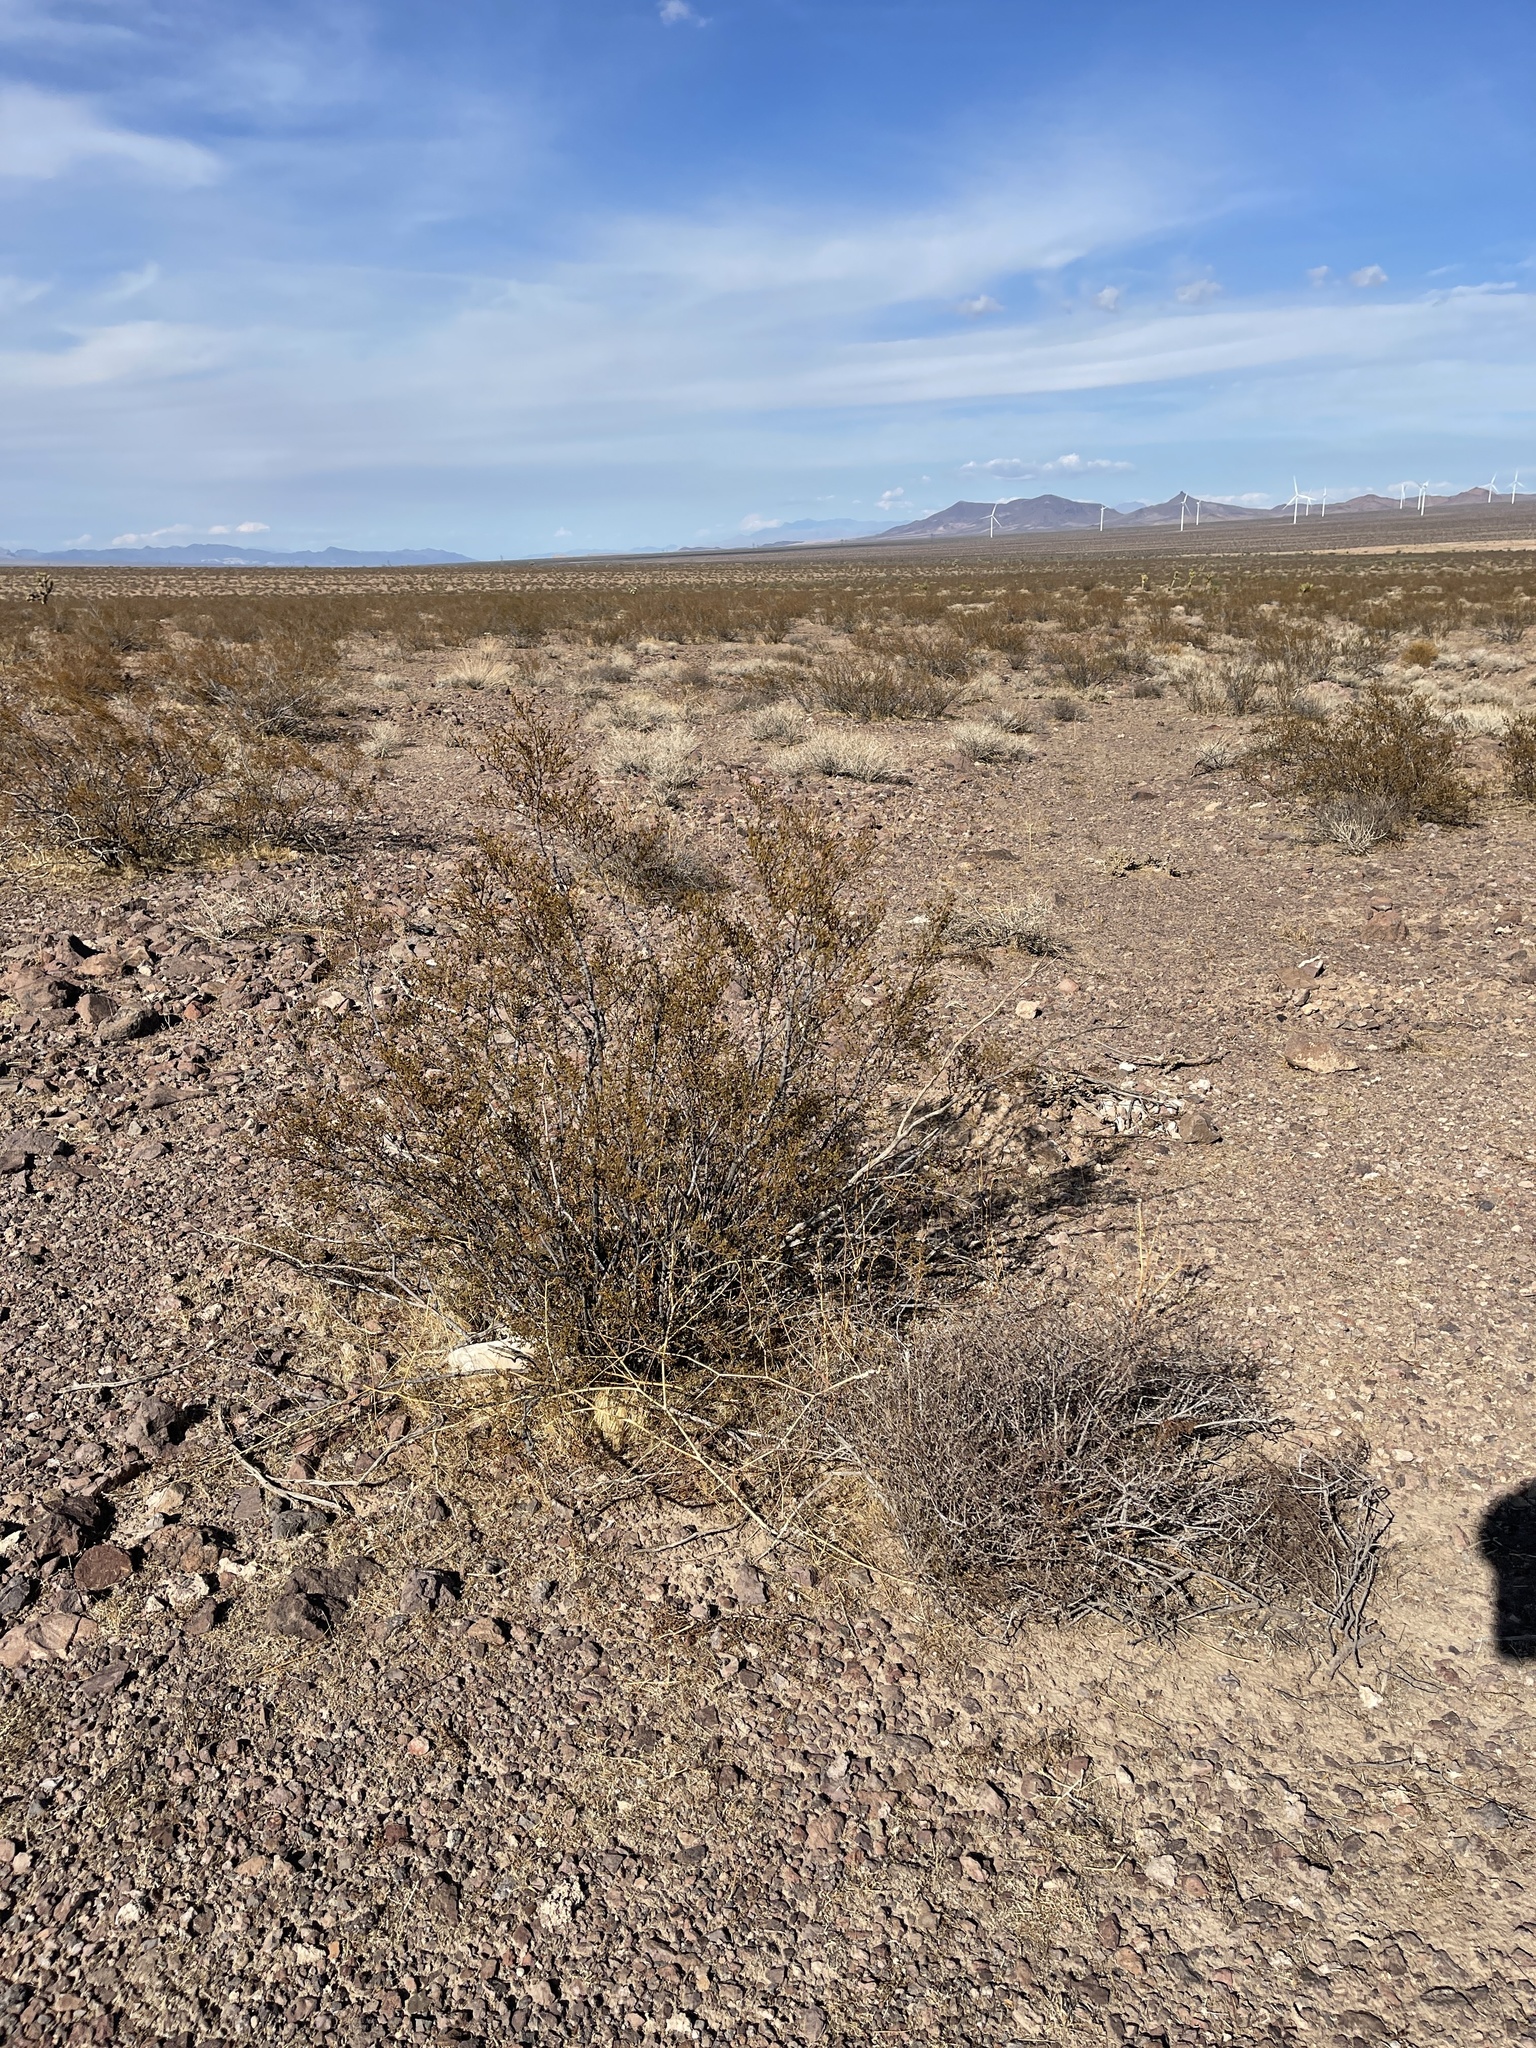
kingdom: Plantae
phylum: Tracheophyta
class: Magnoliopsida
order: Zygophyllales
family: Zygophyllaceae
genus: Larrea
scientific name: Larrea tridentata
